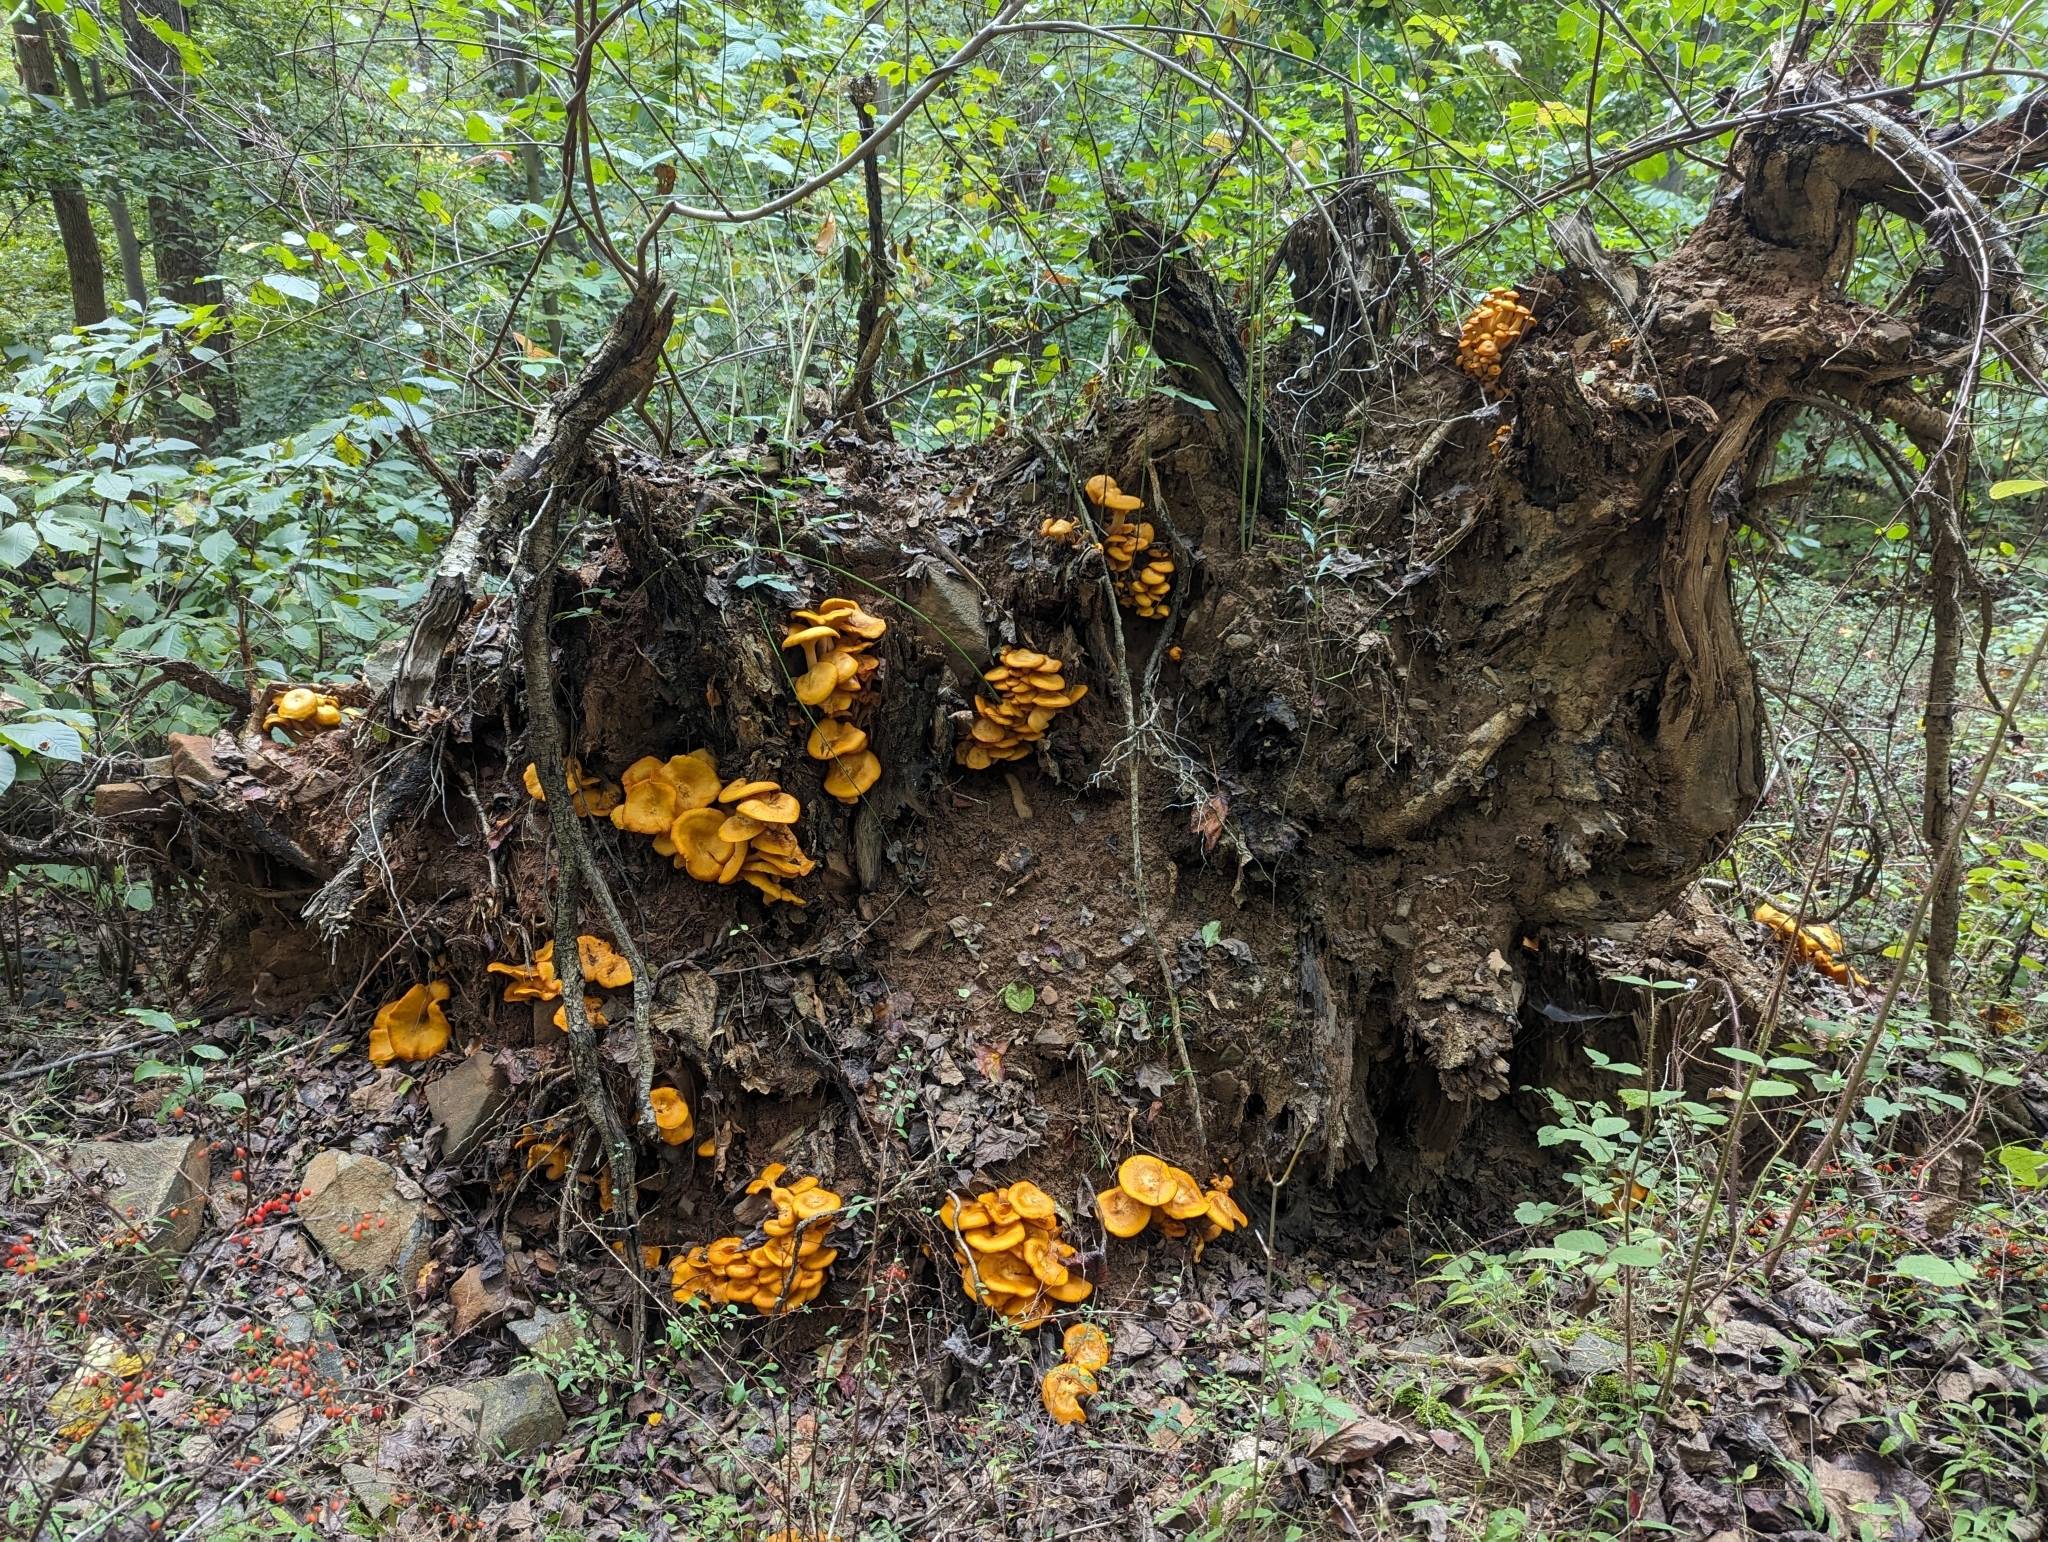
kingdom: Fungi
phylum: Basidiomycota
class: Agaricomycetes
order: Agaricales
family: Omphalotaceae
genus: Omphalotus
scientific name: Omphalotus illudens
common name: Jack o lantern
